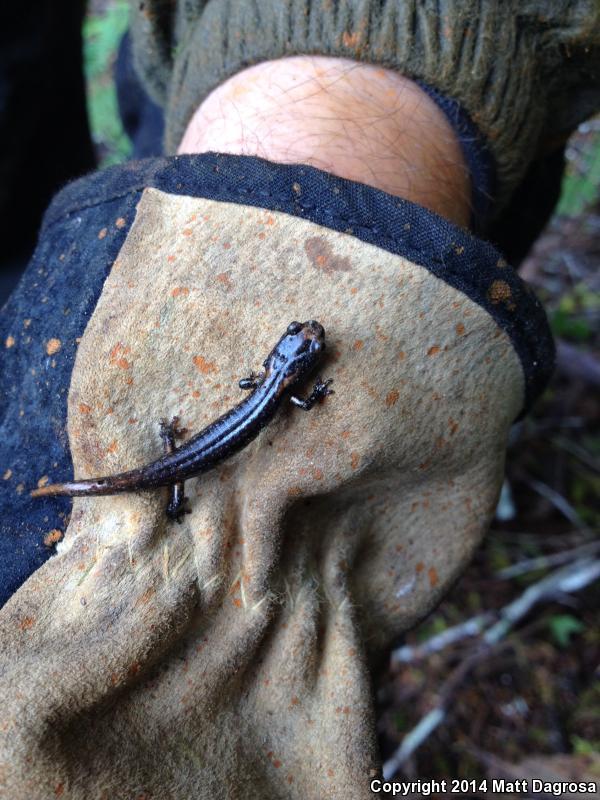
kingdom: Animalia
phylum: Chordata
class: Amphibia
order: Caudata
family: Plethodontidae
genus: Aneides
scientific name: Aneides ferreus
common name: Clouded salamander
